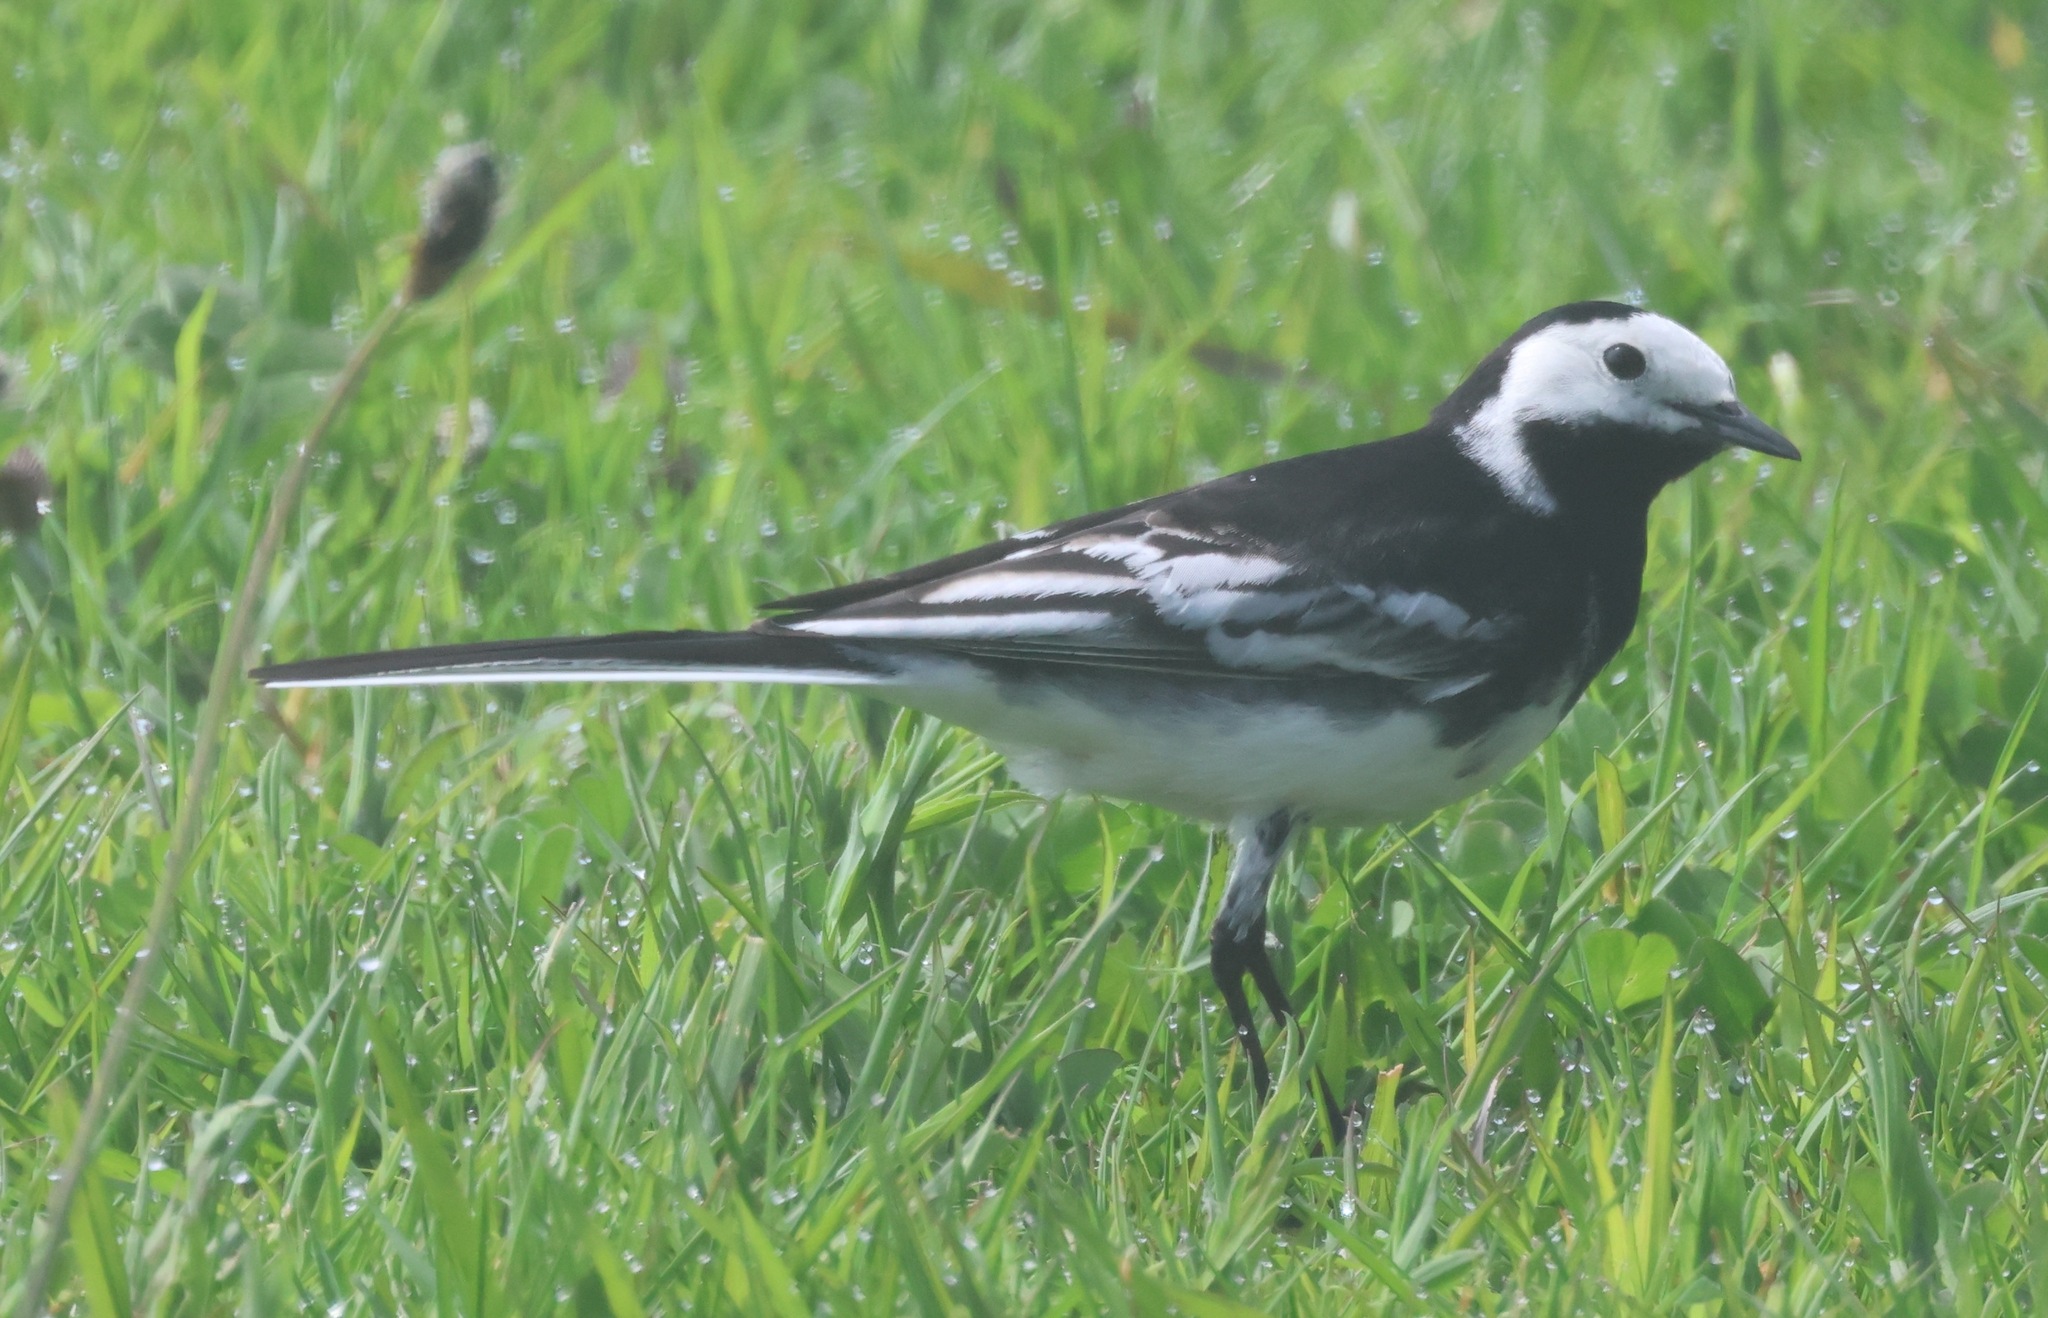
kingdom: Animalia
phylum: Chordata
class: Aves
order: Passeriformes
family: Motacillidae
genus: Motacilla
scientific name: Motacilla alba
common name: White wagtail
